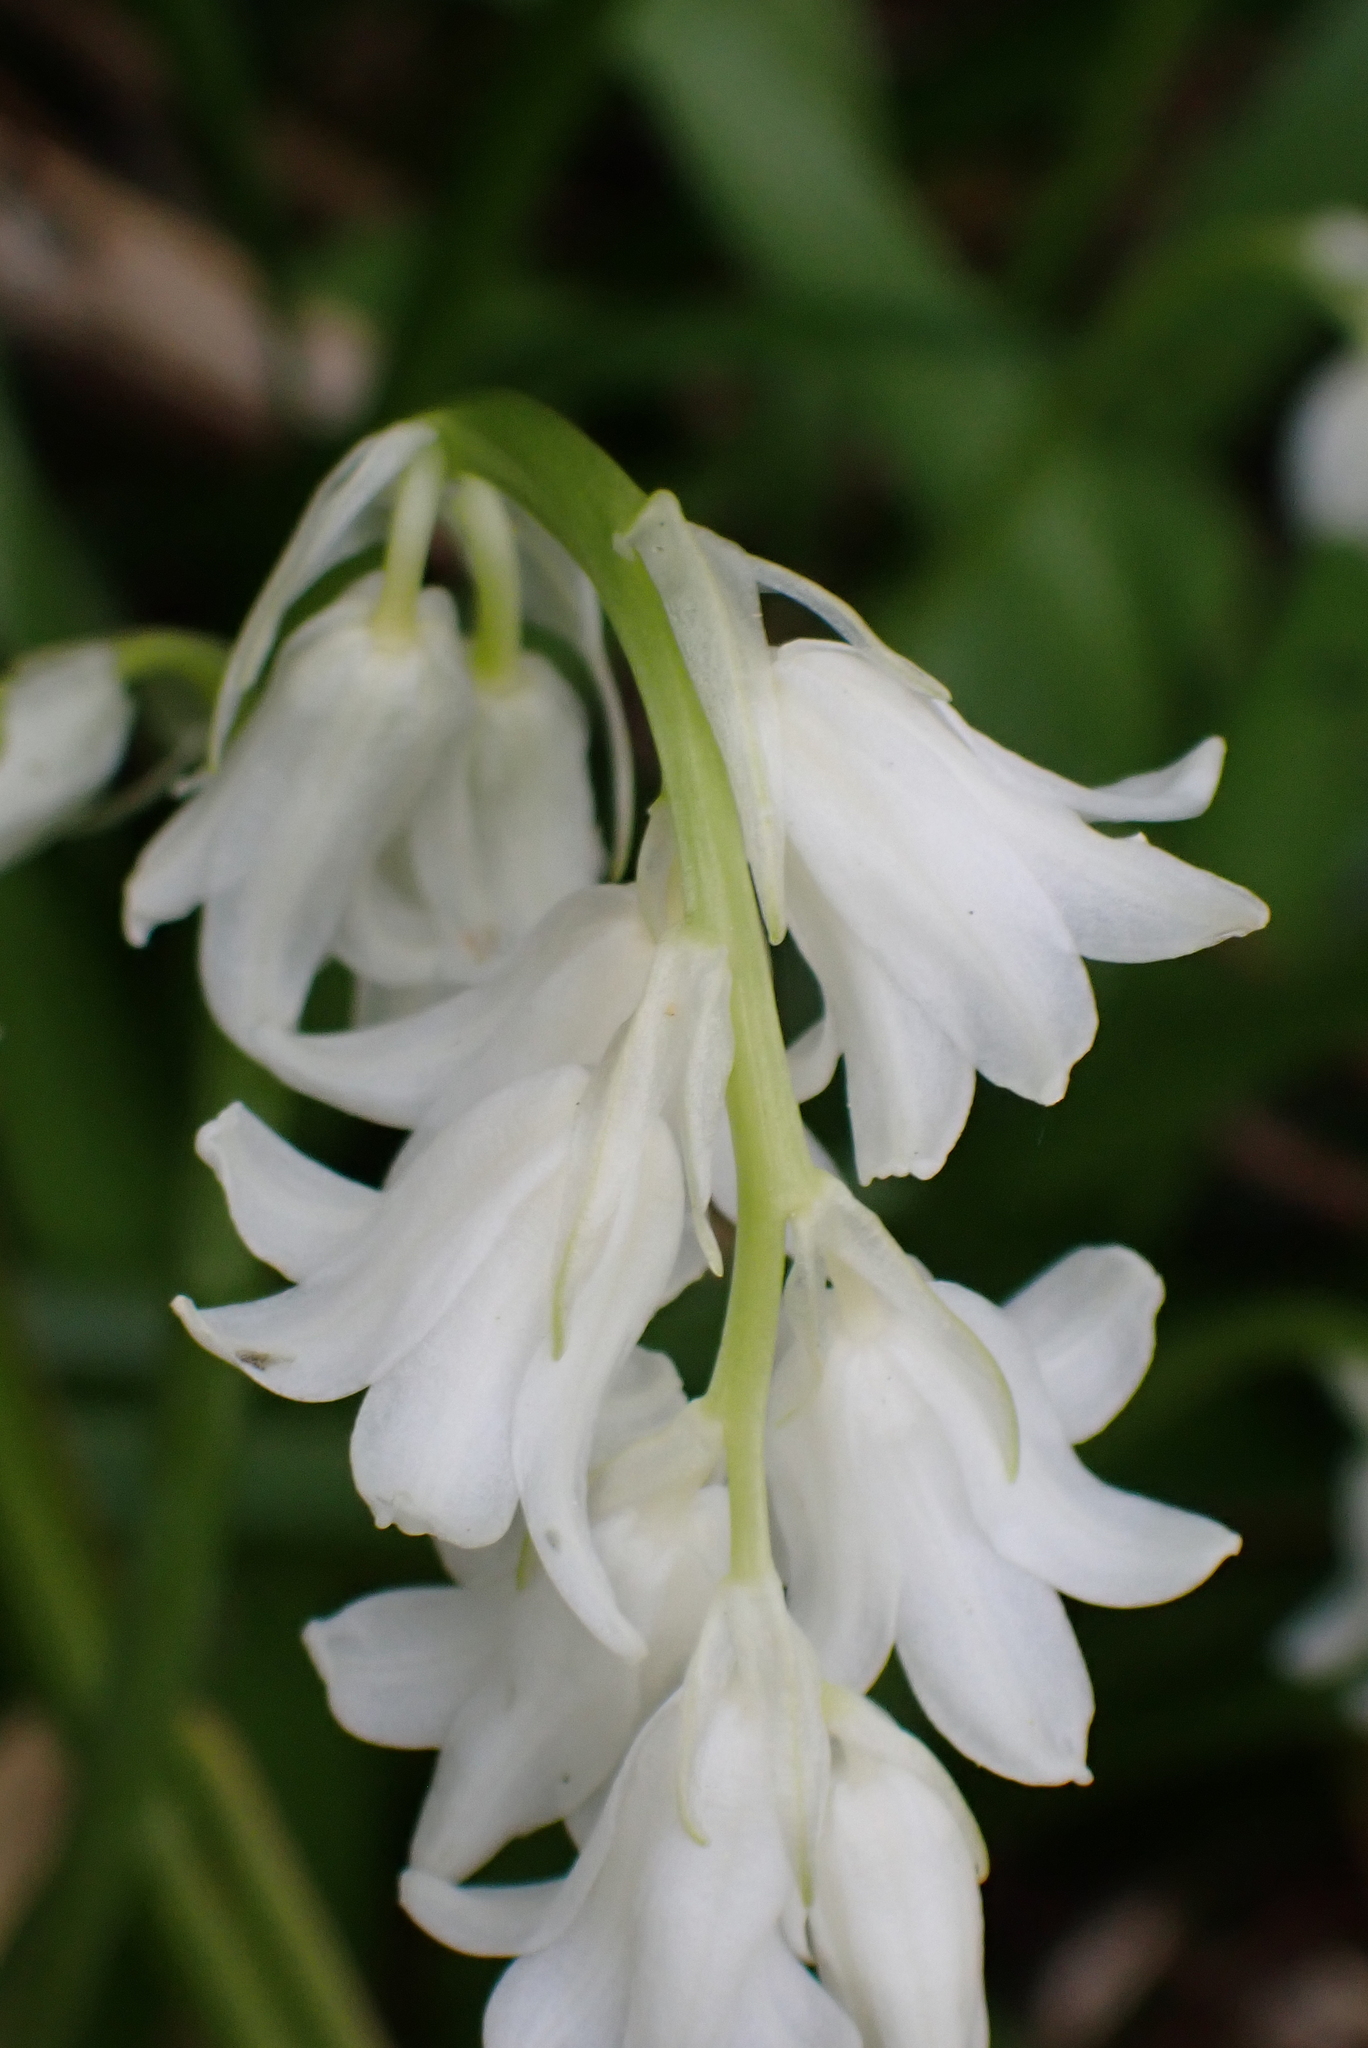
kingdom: Plantae
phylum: Tracheophyta
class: Liliopsida
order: Asparagales
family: Asparagaceae
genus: Hyacinthoides
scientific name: Hyacinthoides massartiana
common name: Hyacinthoides
